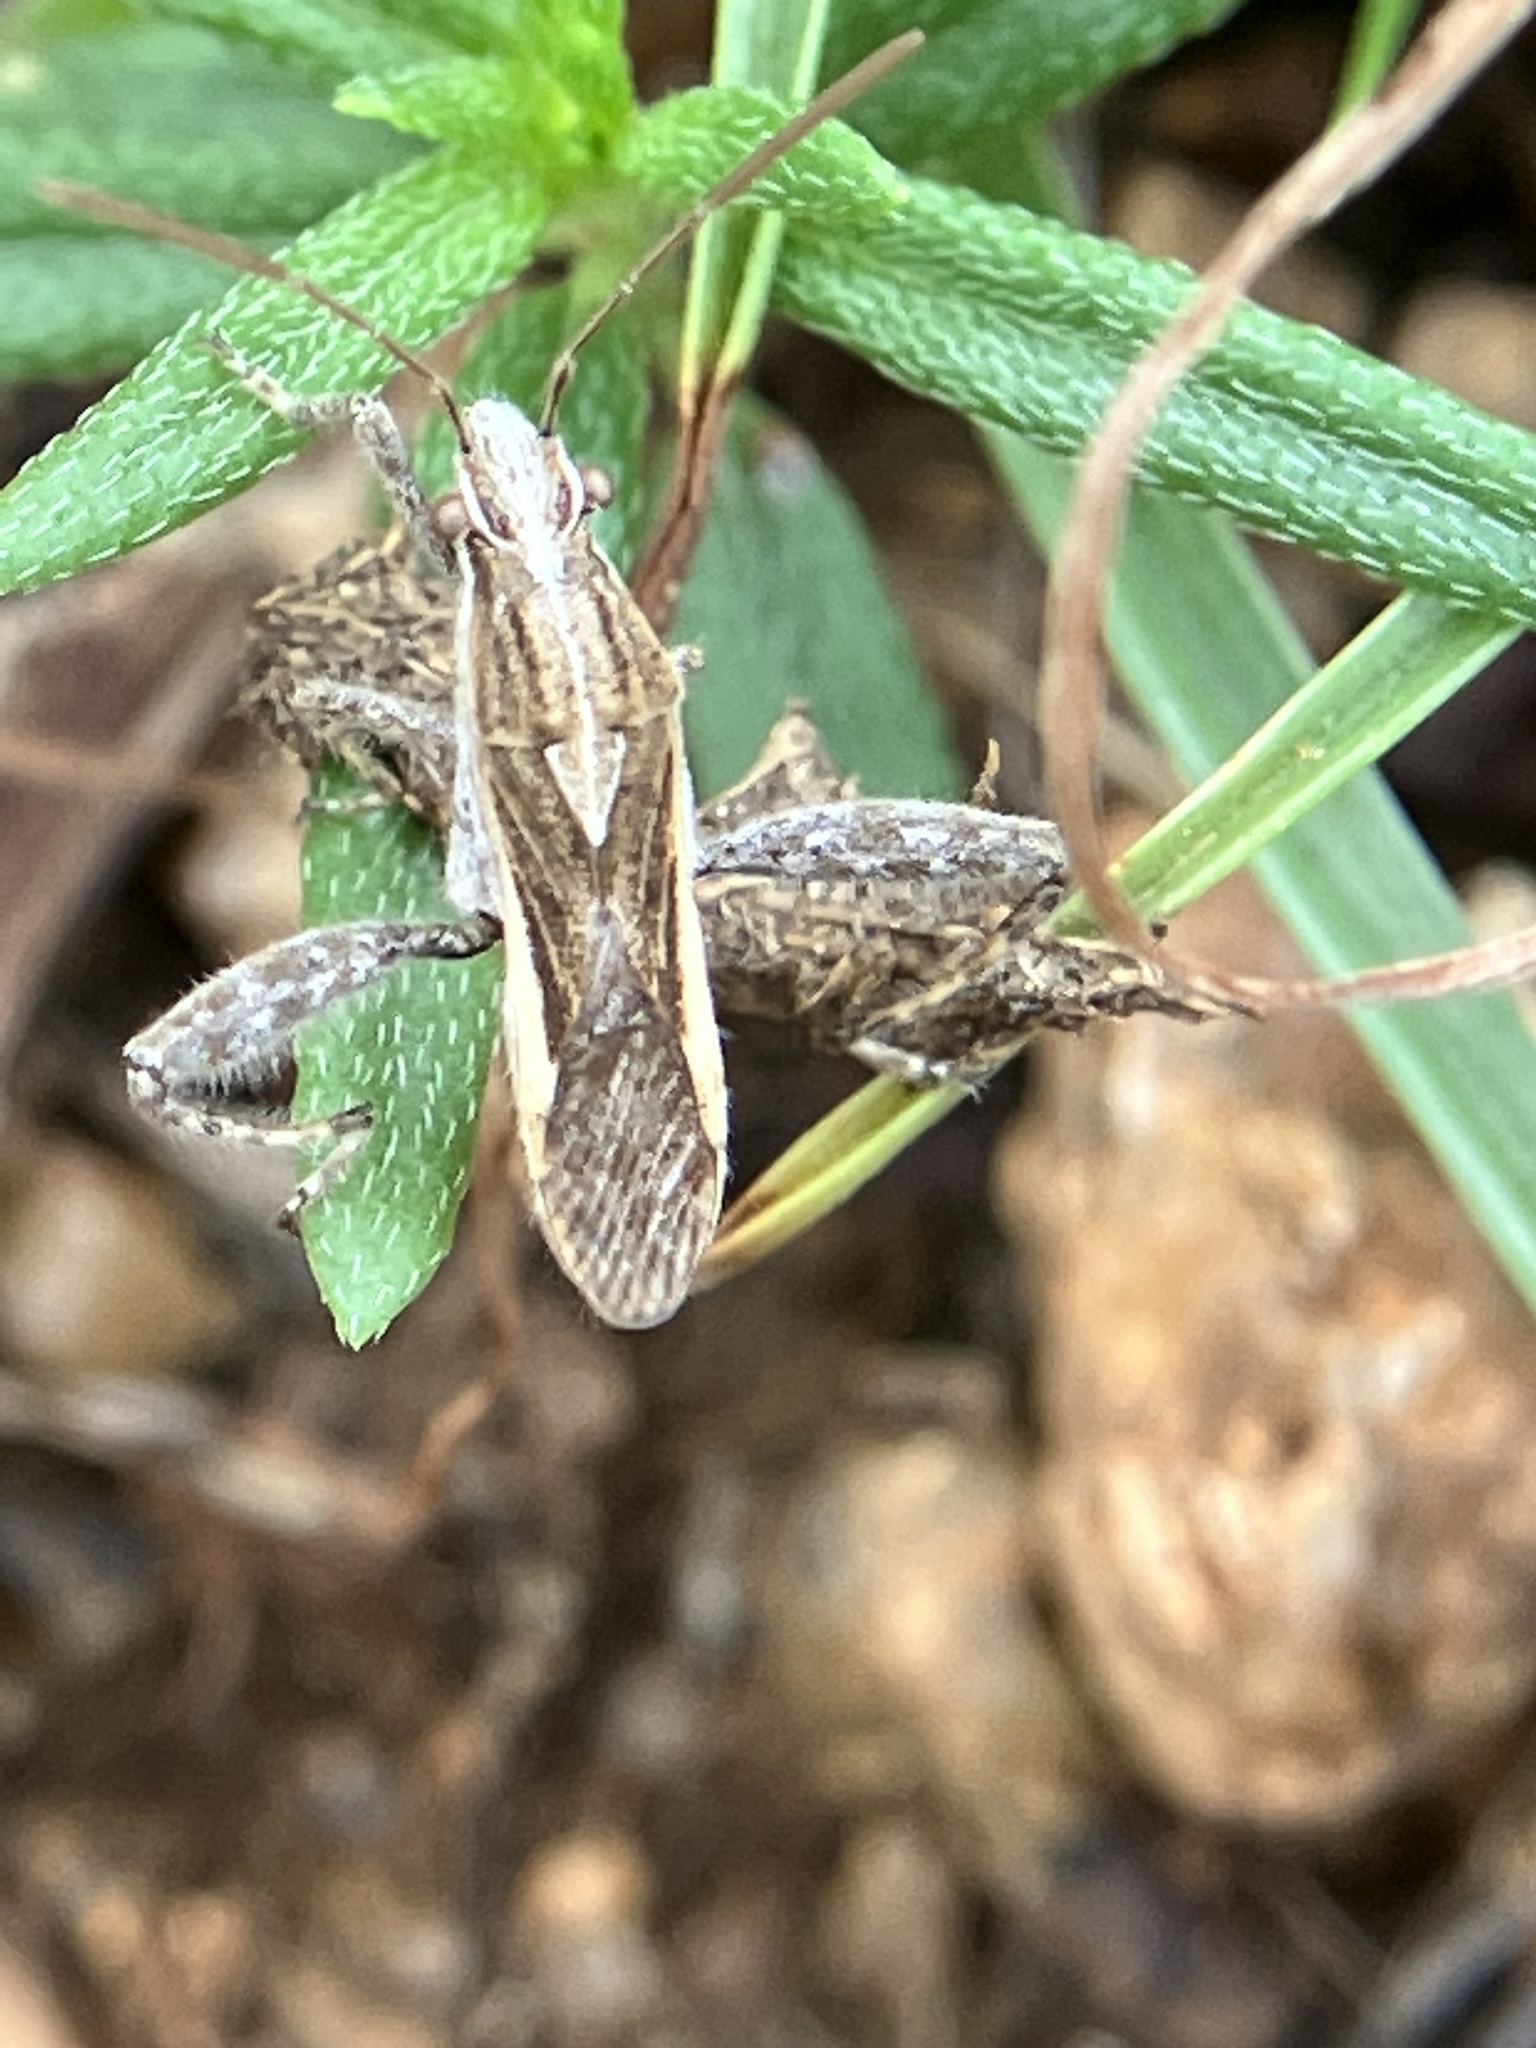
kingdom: Animalia
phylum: Arthropoda
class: Insecta
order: Hemiptera
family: Alydidae
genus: Tenosius
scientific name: Tenosius proletarius
